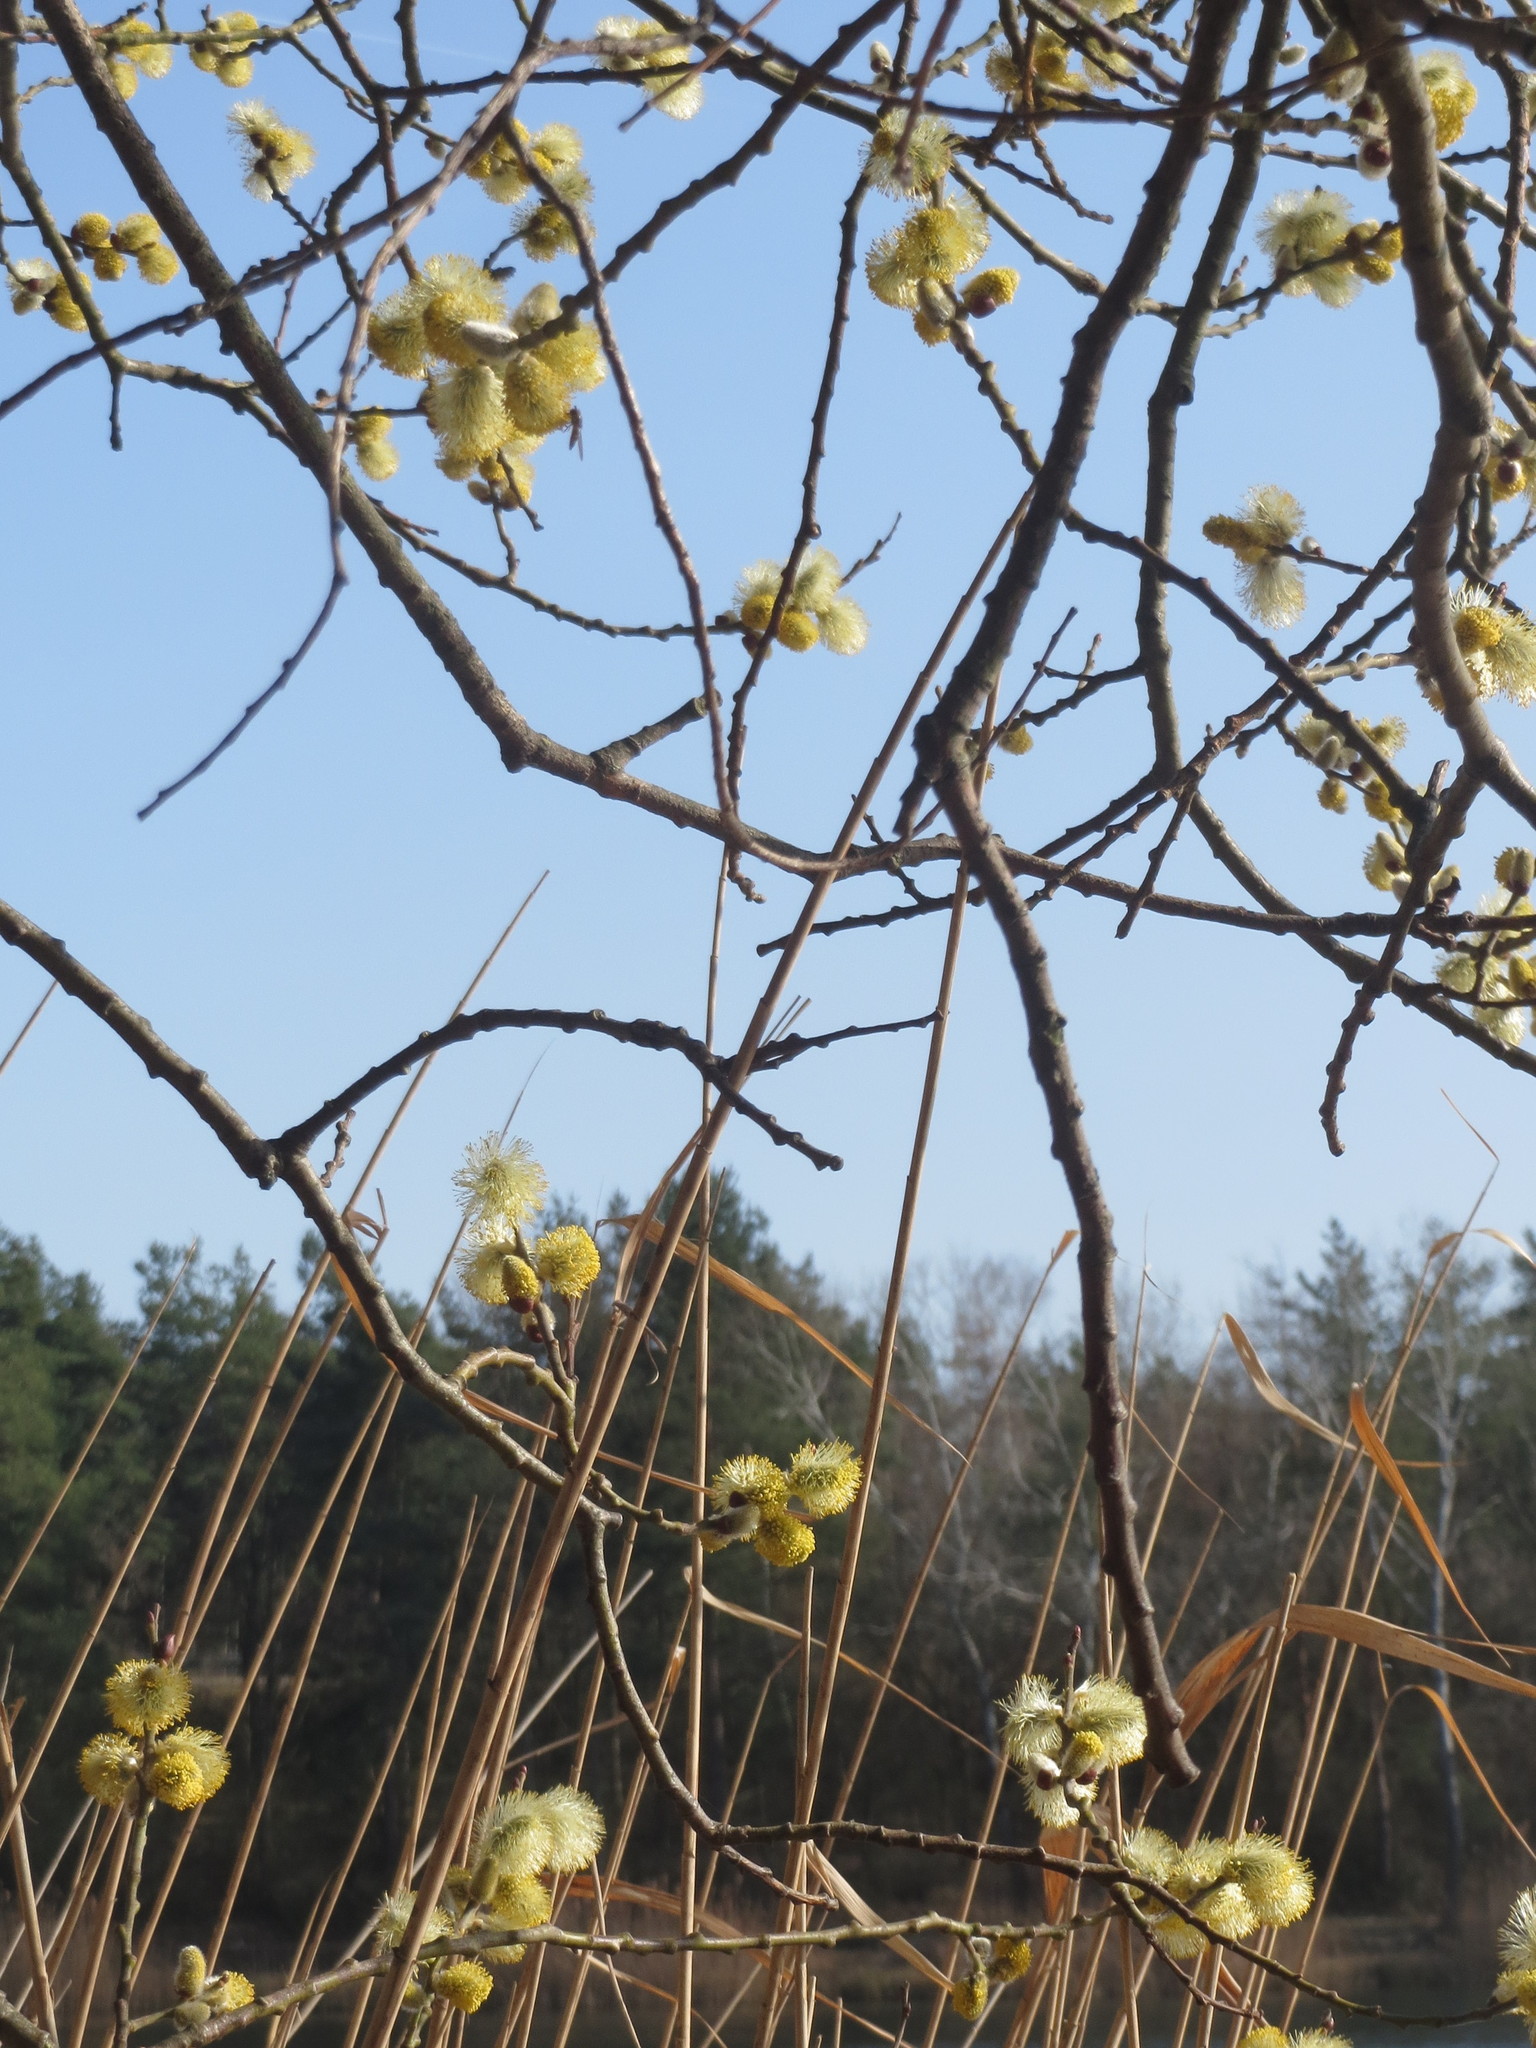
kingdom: Plantae
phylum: Tracheophyta
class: Magnoliopsida
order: Malpighiales
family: Salicaceae
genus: Salix
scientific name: Salix caprea
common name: Goat willow
